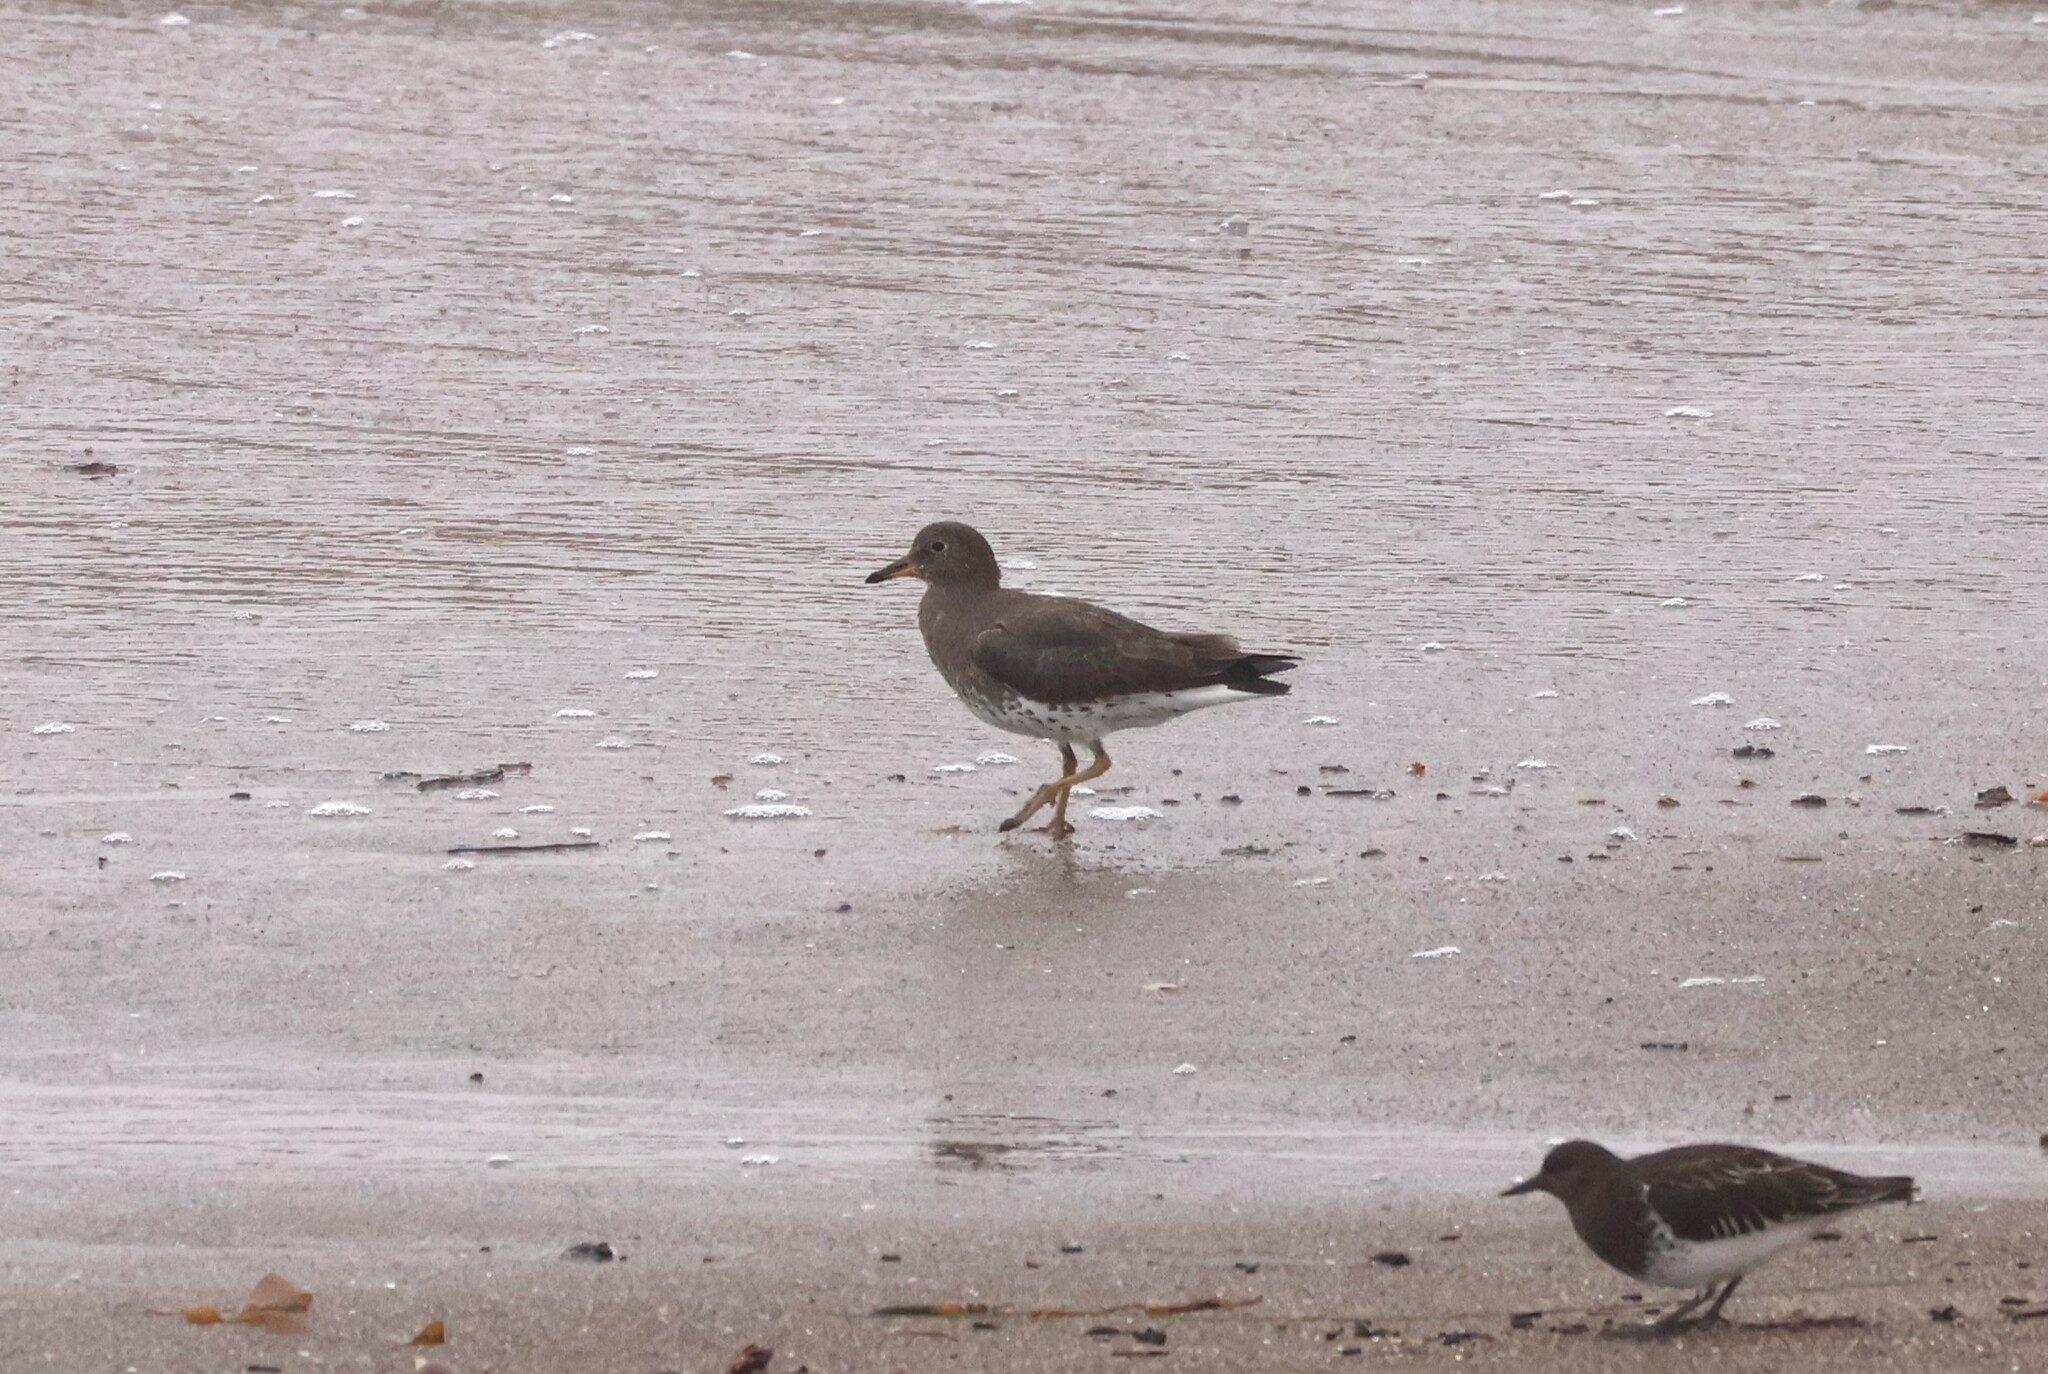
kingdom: Animalia
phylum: Chordata
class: Aves
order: Charadriiformes
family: Scolopacidae
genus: Calidris
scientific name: Calidris virgata
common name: Surfbird
